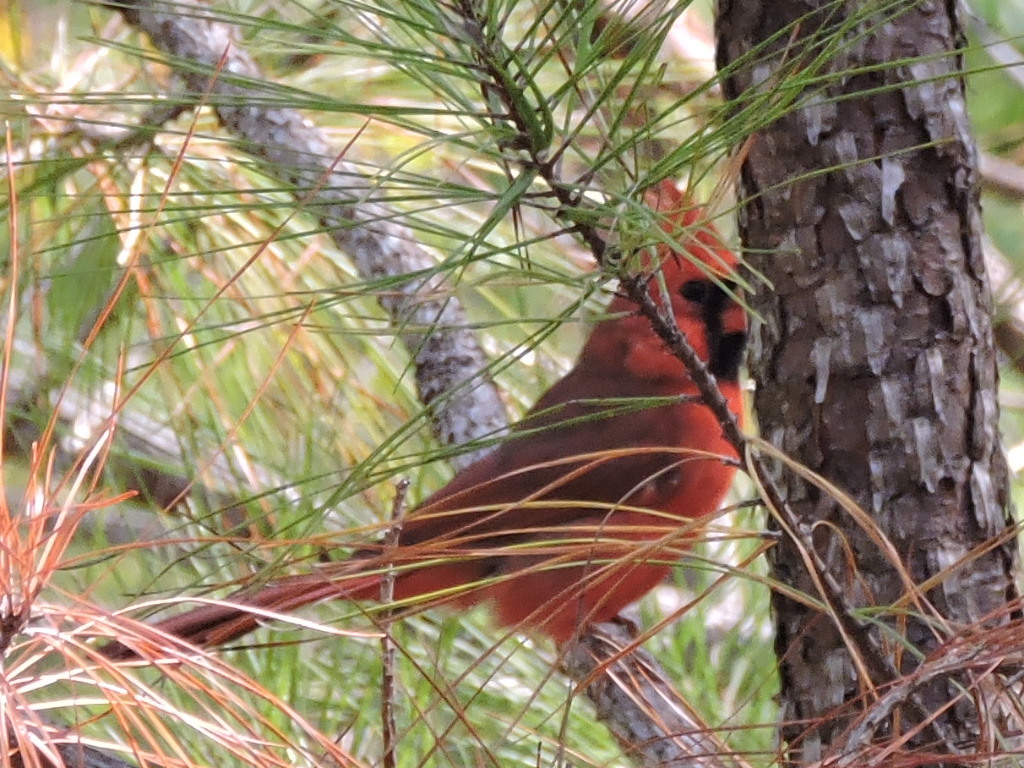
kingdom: Animalia
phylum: Chordata
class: Aves
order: Passeriformes
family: Cardinalidae
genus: Cardinalis
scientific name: Cardinalis cardinalis
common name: Northern cardinal
